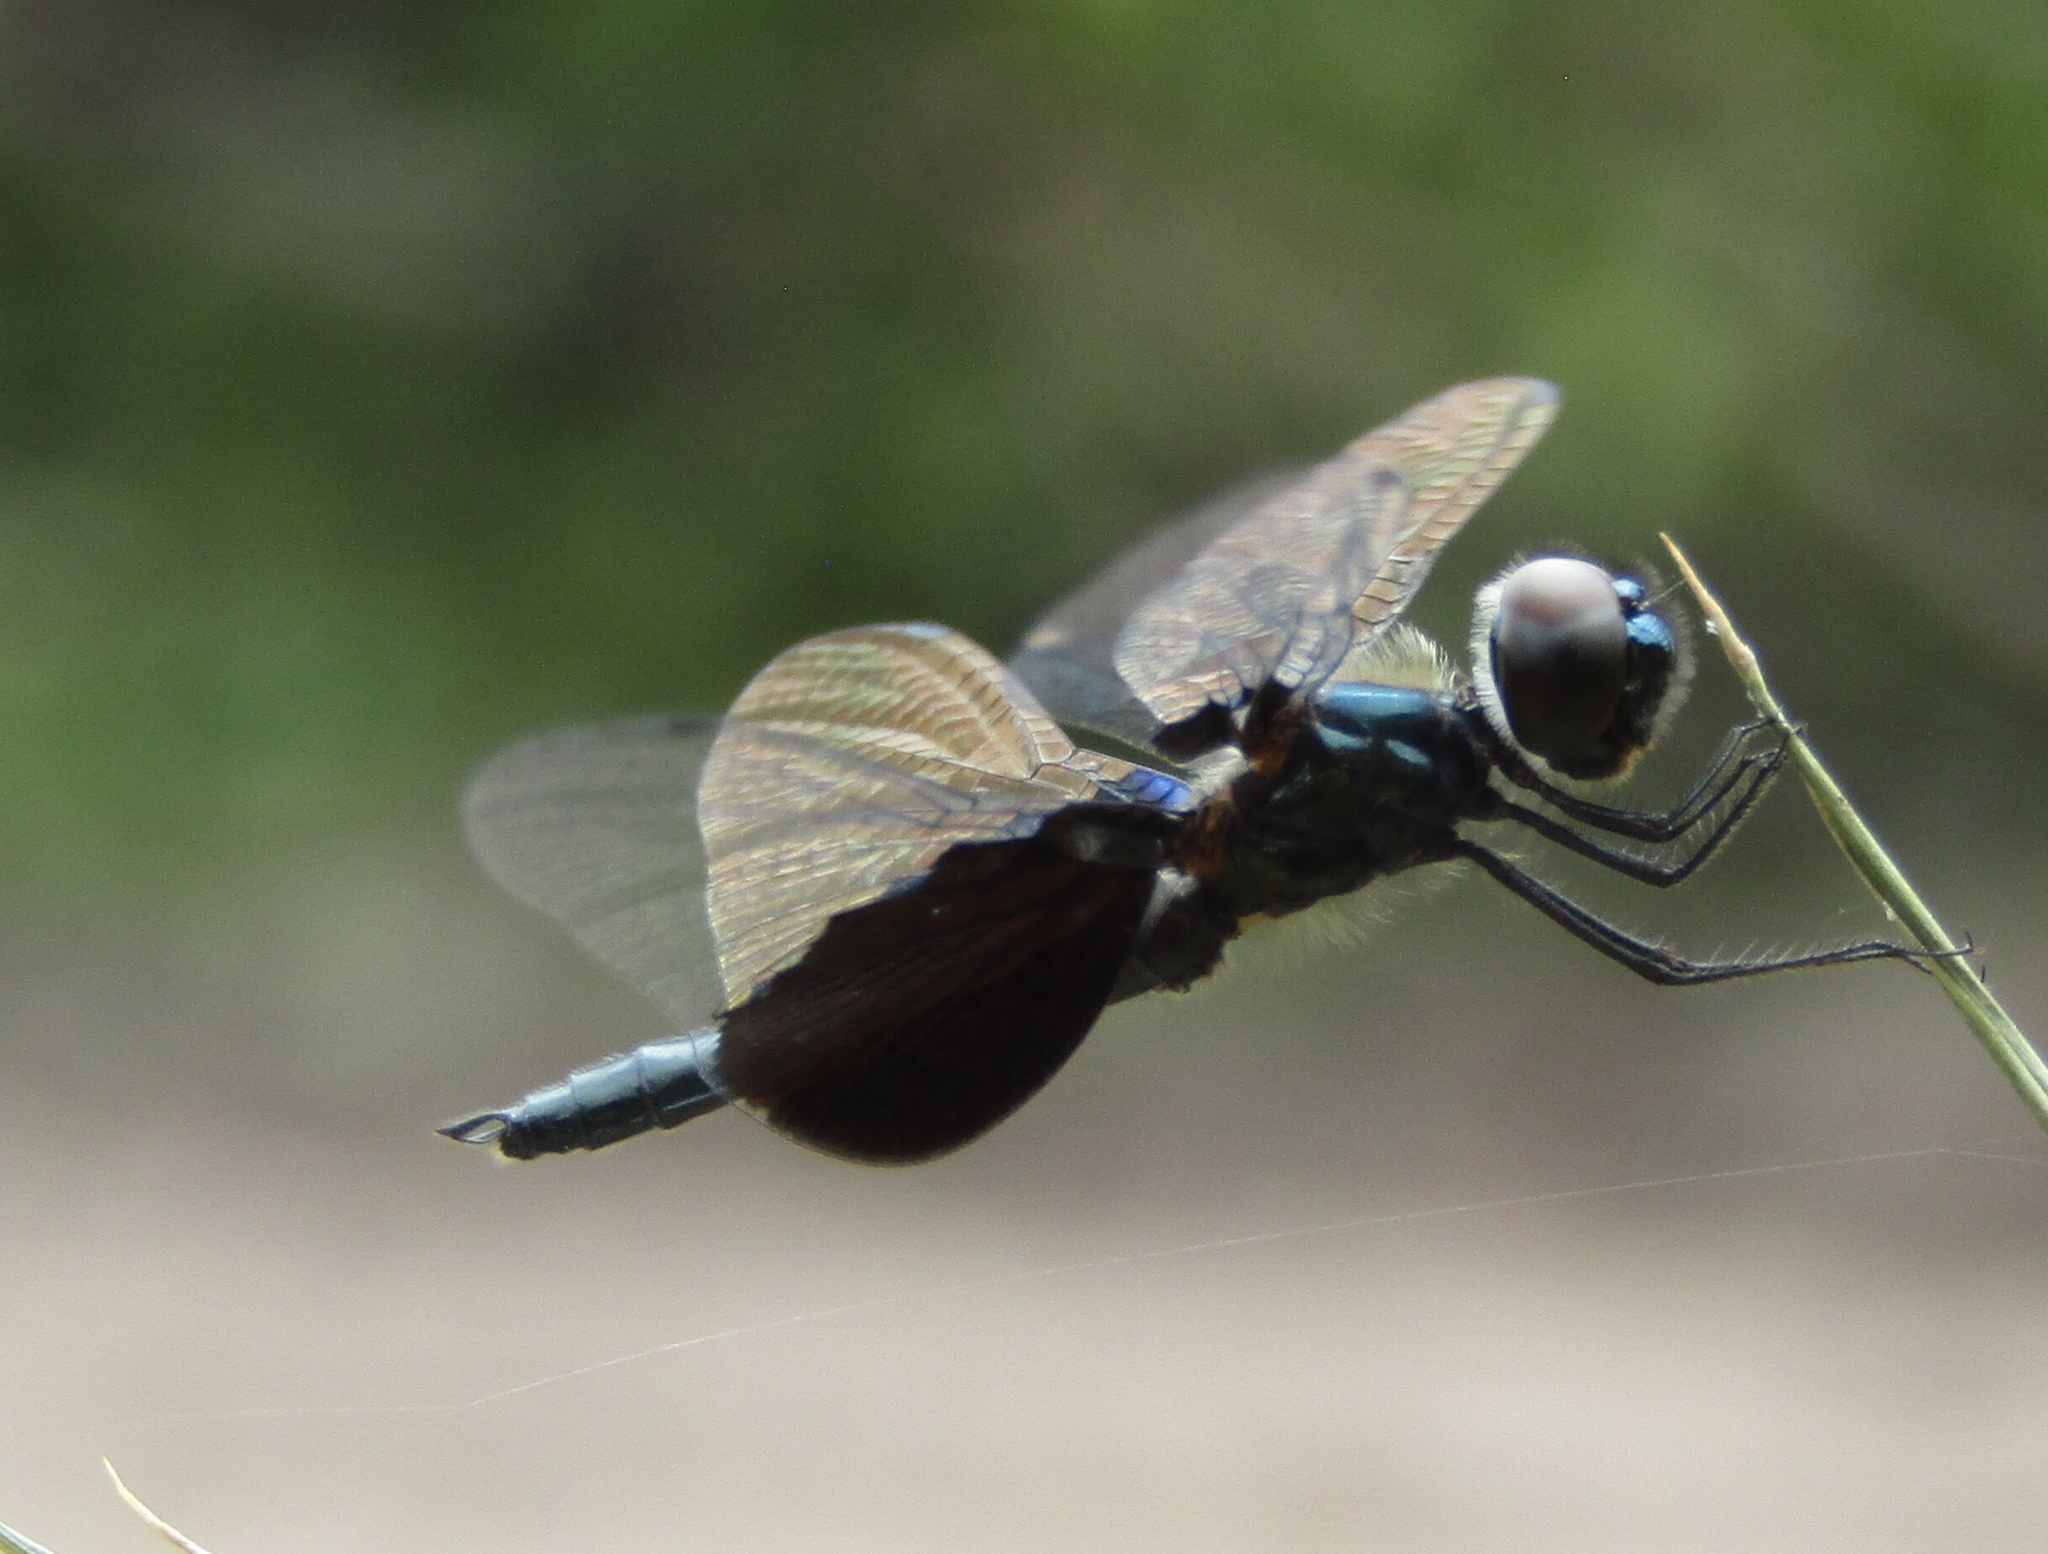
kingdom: Animalia
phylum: Arthropoda
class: Insecta
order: Odonata
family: Libellulidae
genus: Rhyothemis
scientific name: Rhyothemis triangularis
